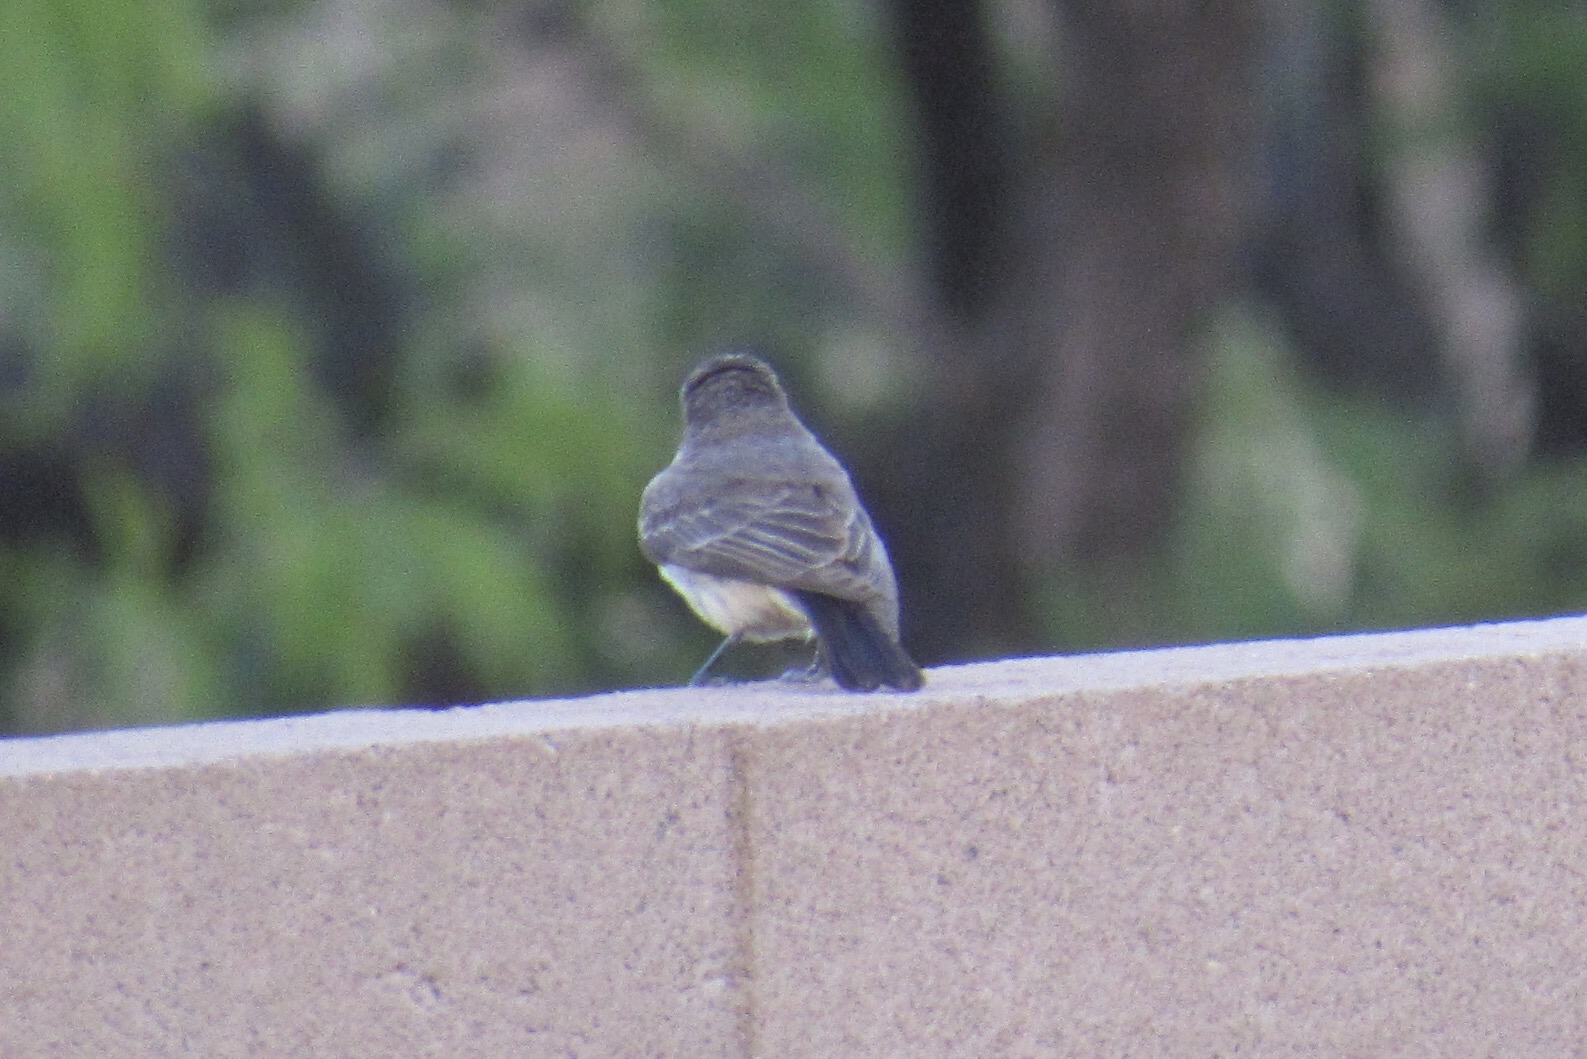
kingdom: Animalia
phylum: Chordata
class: Aves
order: Passeriformes
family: Tyrannidae
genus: Pyrocephalus
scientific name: Pyrocephalus rubinus
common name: Vermilion flycatcher
